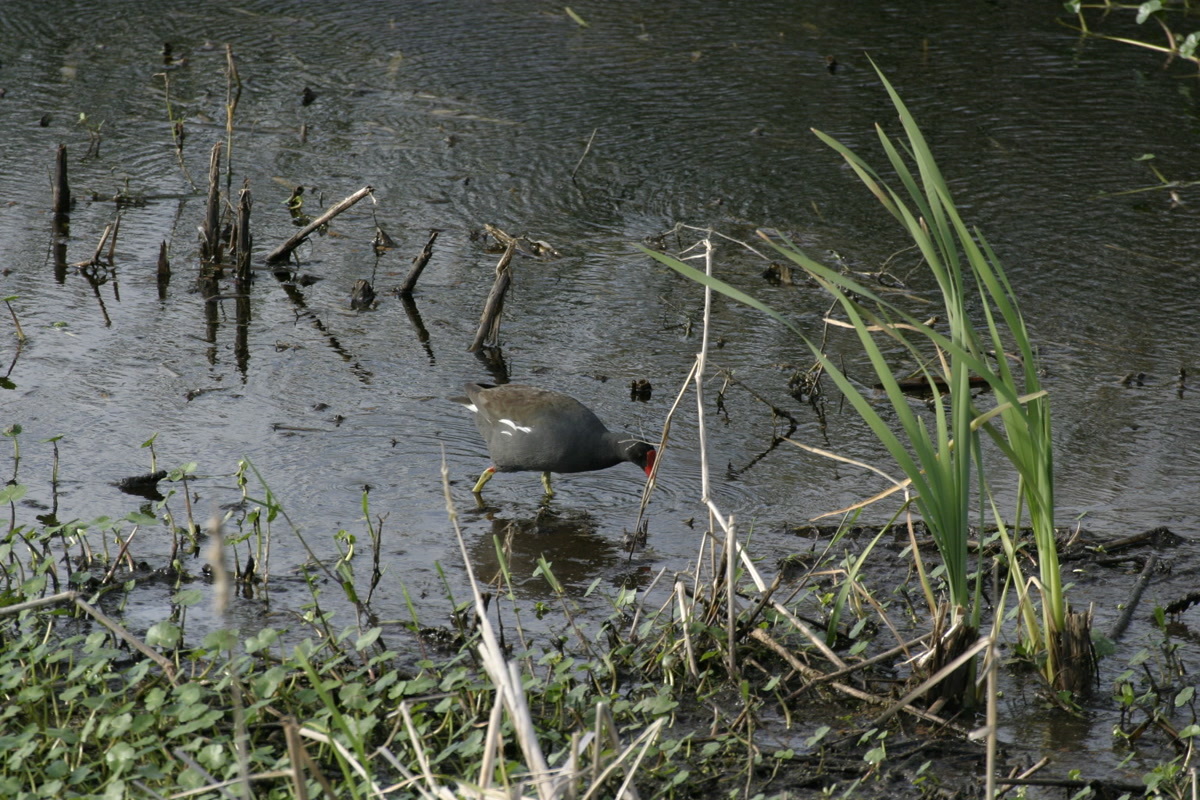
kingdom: Animalia
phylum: Chordata
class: Aves
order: Gruiformes
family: Rallidae
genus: Gallinula
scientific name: Gallinula chloropus
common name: Common moorhen
